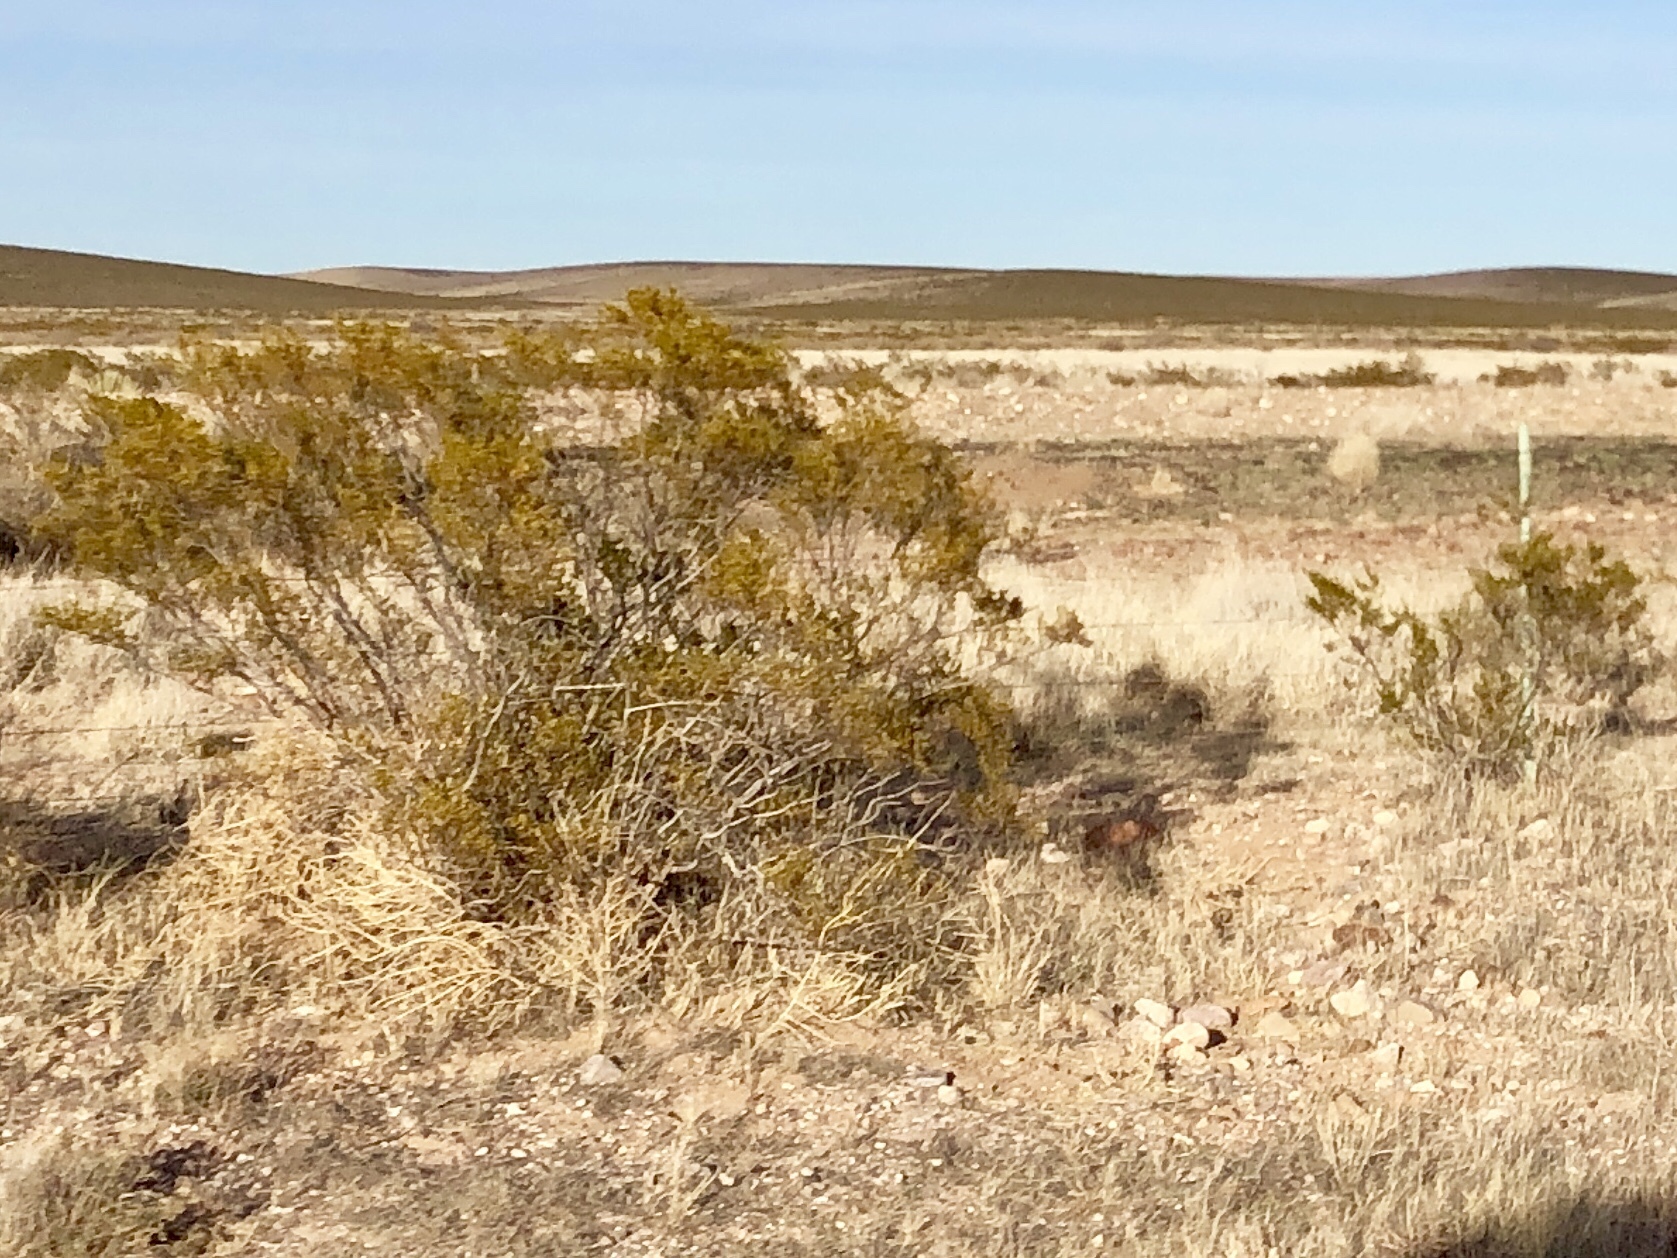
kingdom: Plantae
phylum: Tracheophyta
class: Magnoliopsida
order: Zygophyllales
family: Zygophyllaceae
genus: Larrea
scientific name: Larrea tridentata
